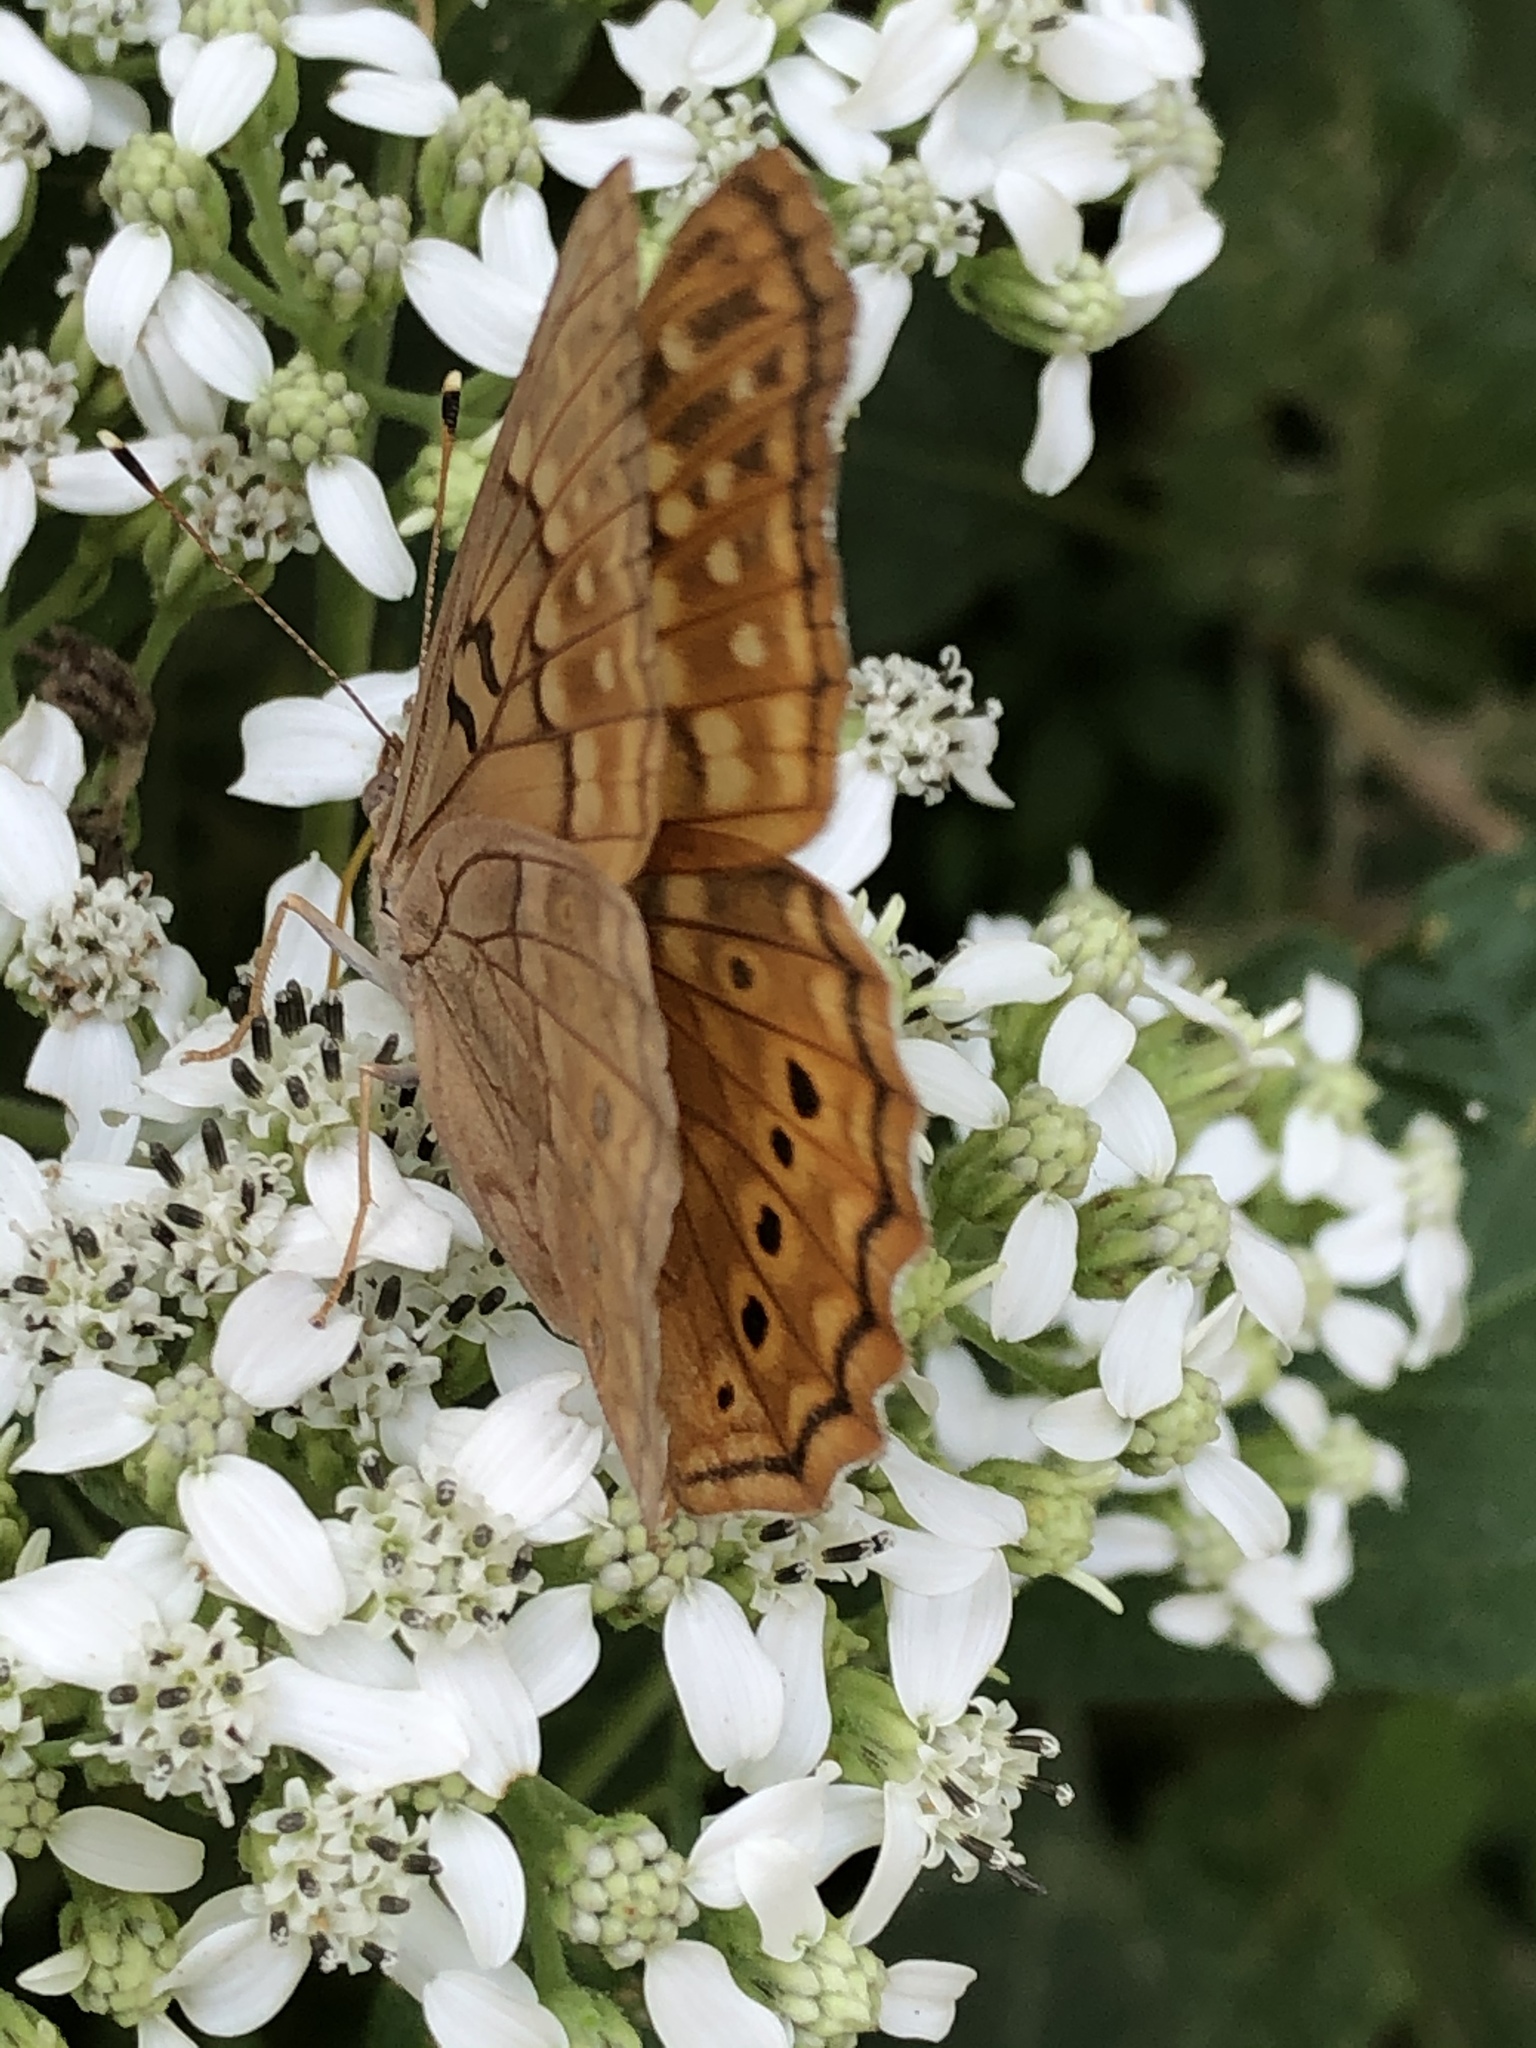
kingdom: Animalia
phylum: Arthropoda
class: Insecta
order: Lepidoptera
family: Nymphalidae
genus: Asterocampa
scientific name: Asterocampa clyton
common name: Tawny emperor
